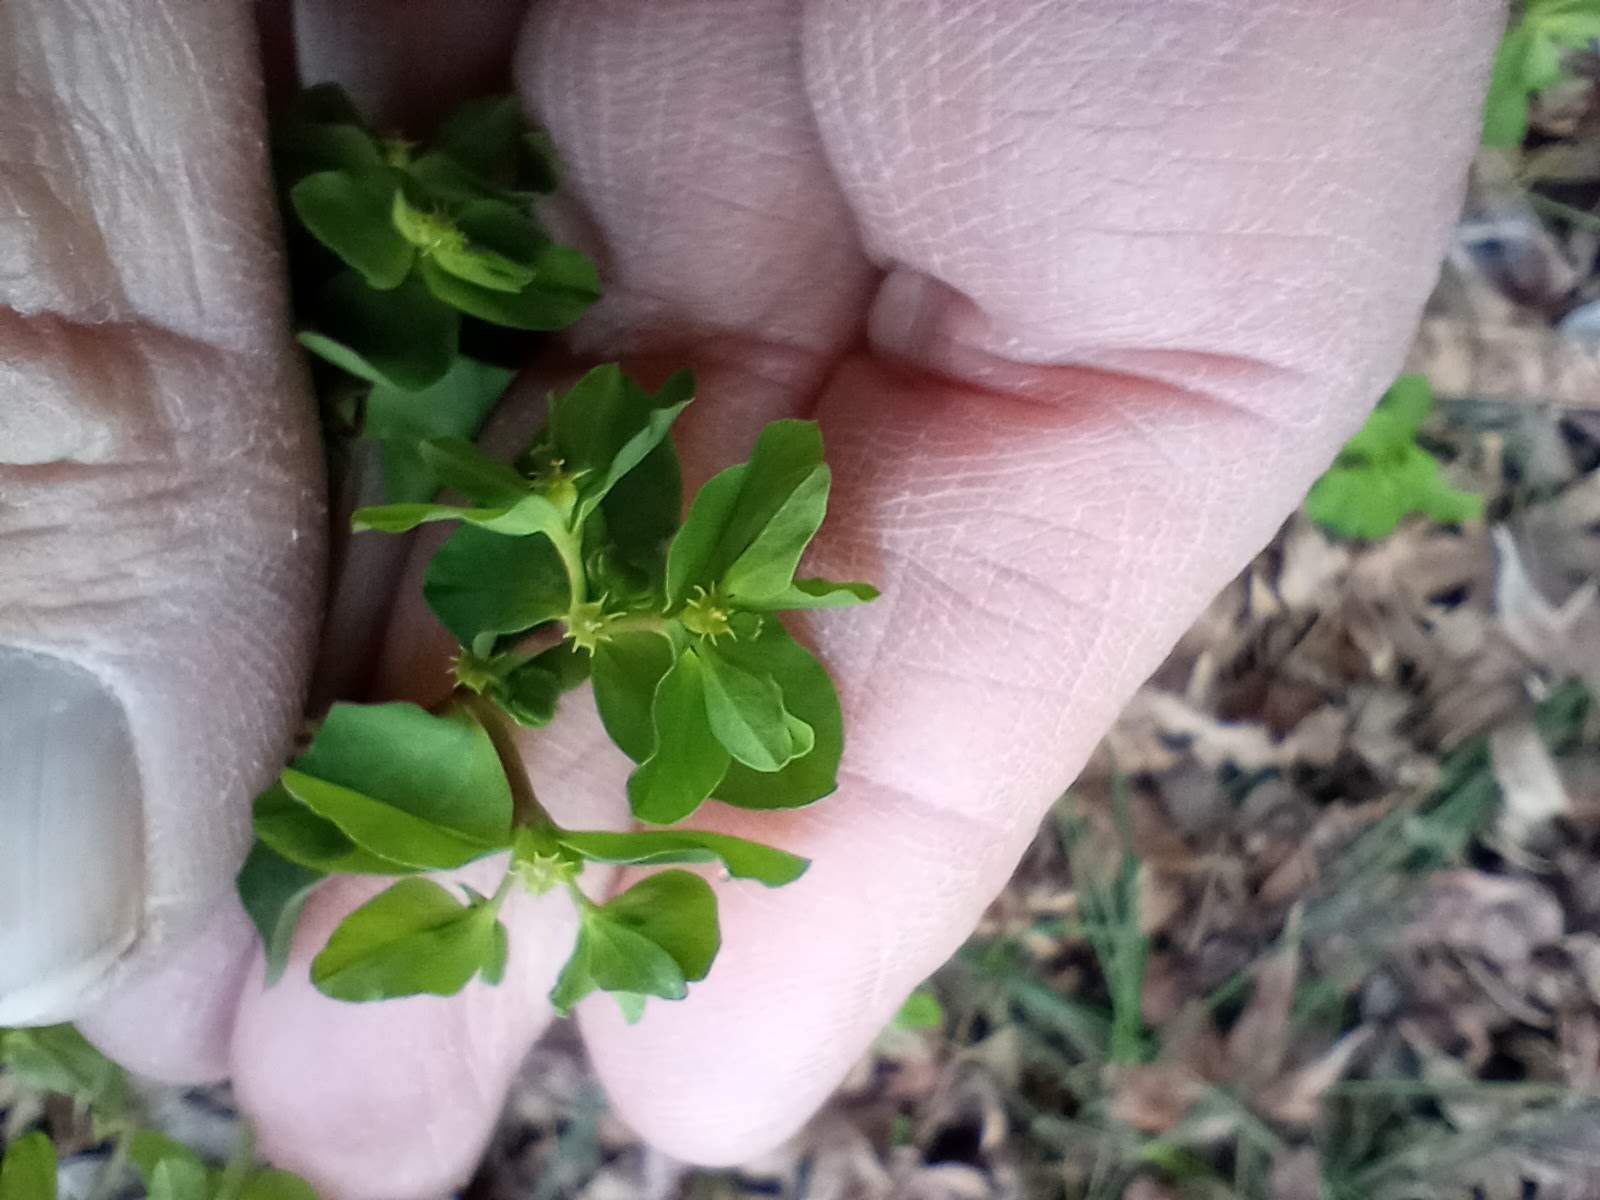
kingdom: Plantae
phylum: Tracheophyta
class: Magnoliopsida
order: Malpighiales
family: Euphorbiaceae
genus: Euphorbia
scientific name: Euphorbia peplus
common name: Petty spurge
